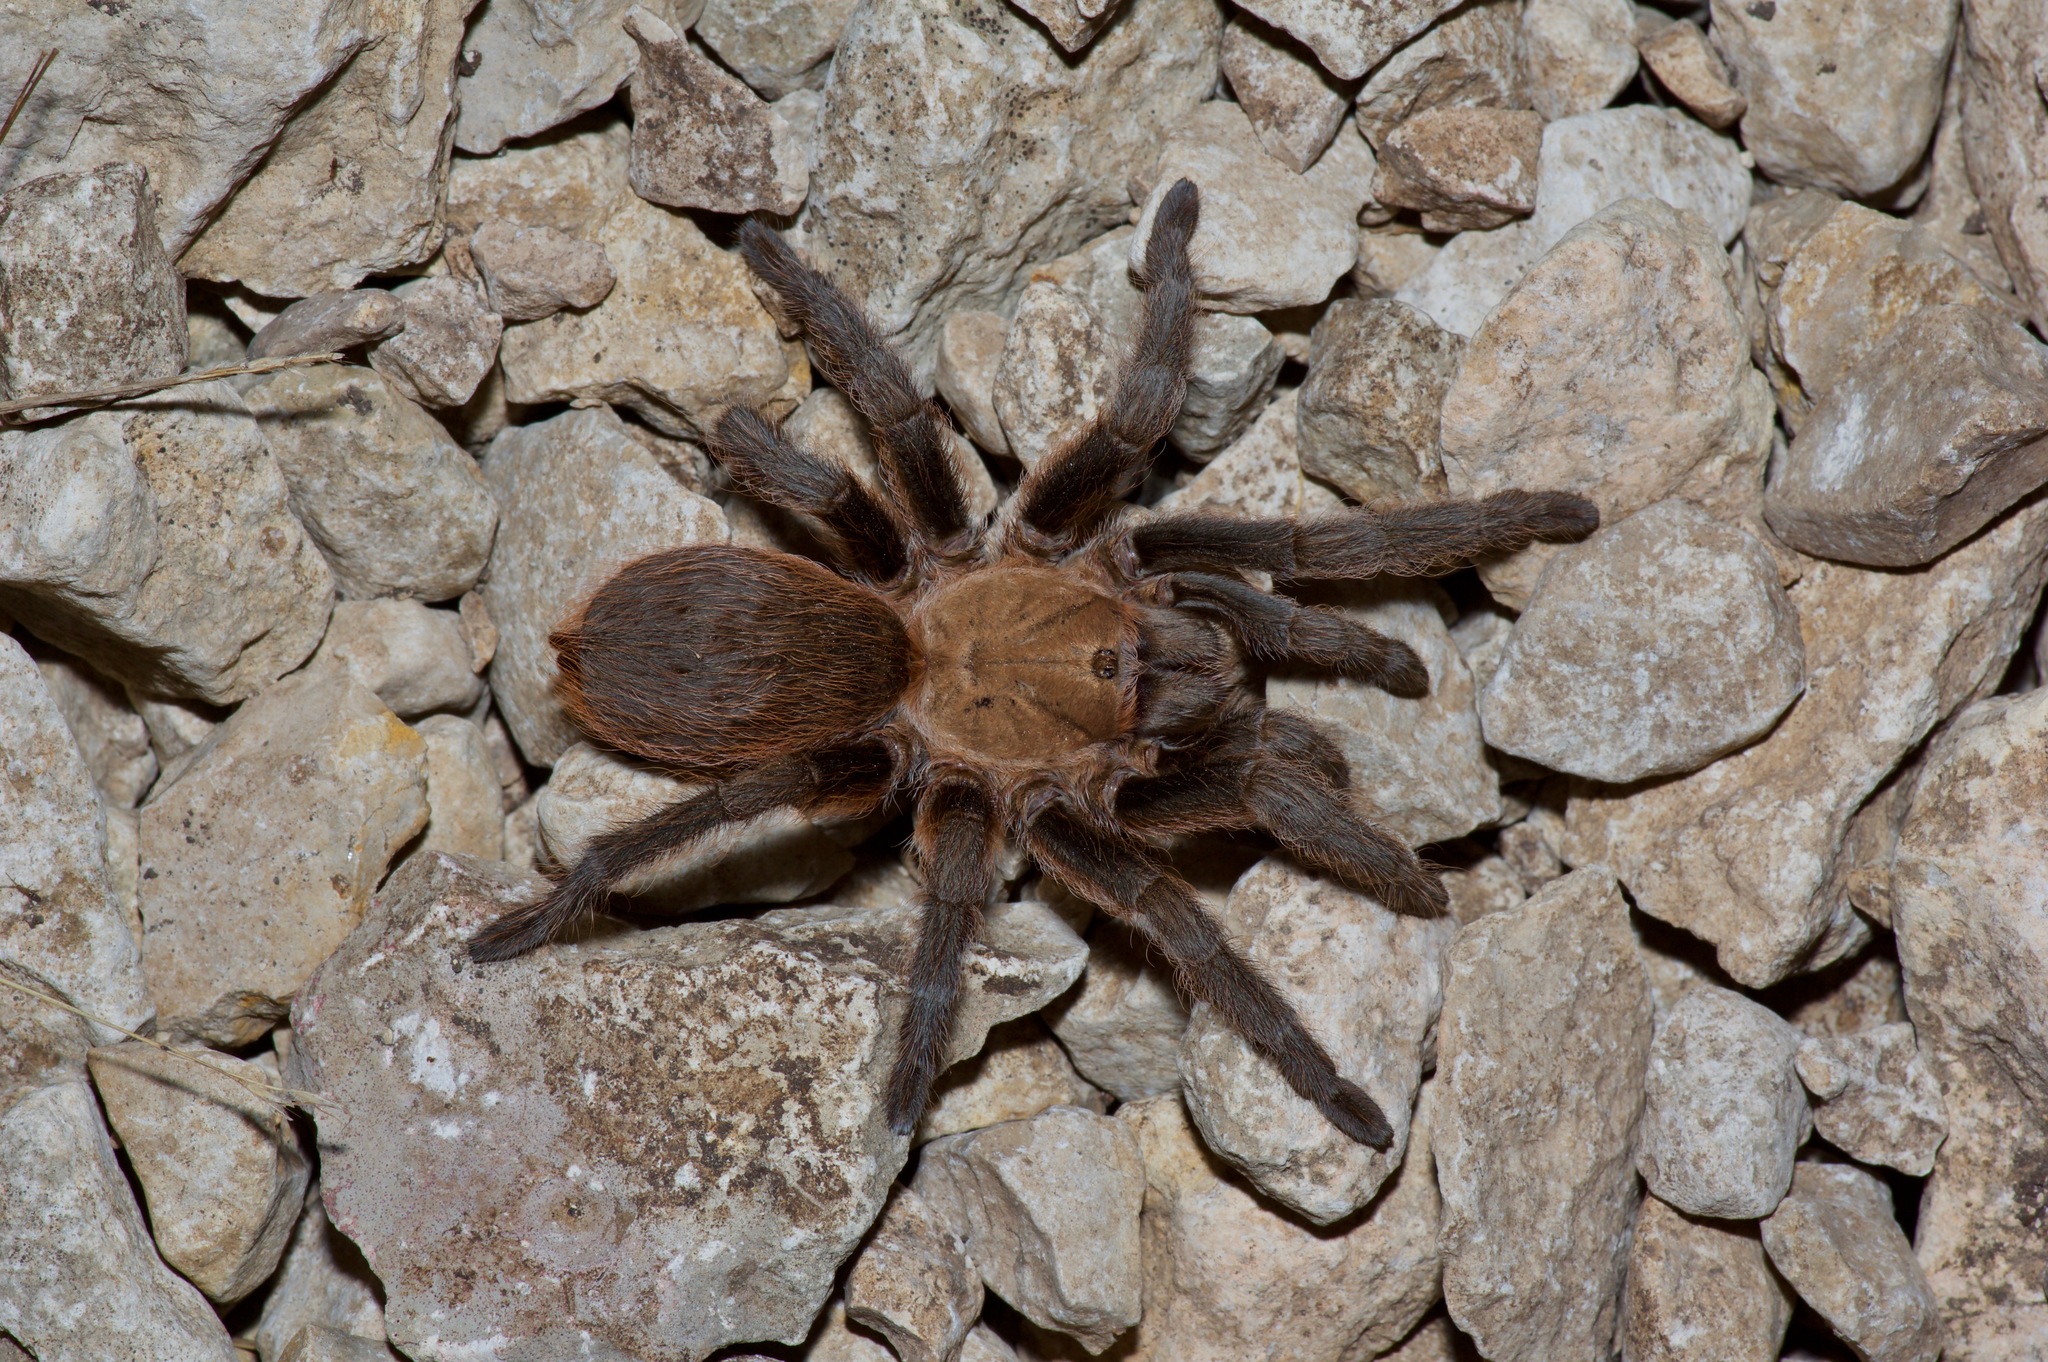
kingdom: Animalia
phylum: Arthropoda
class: Arachnida
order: Araneae
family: Theraphosidae
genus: Aphonopelma
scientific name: Aphonopelma hentzi
